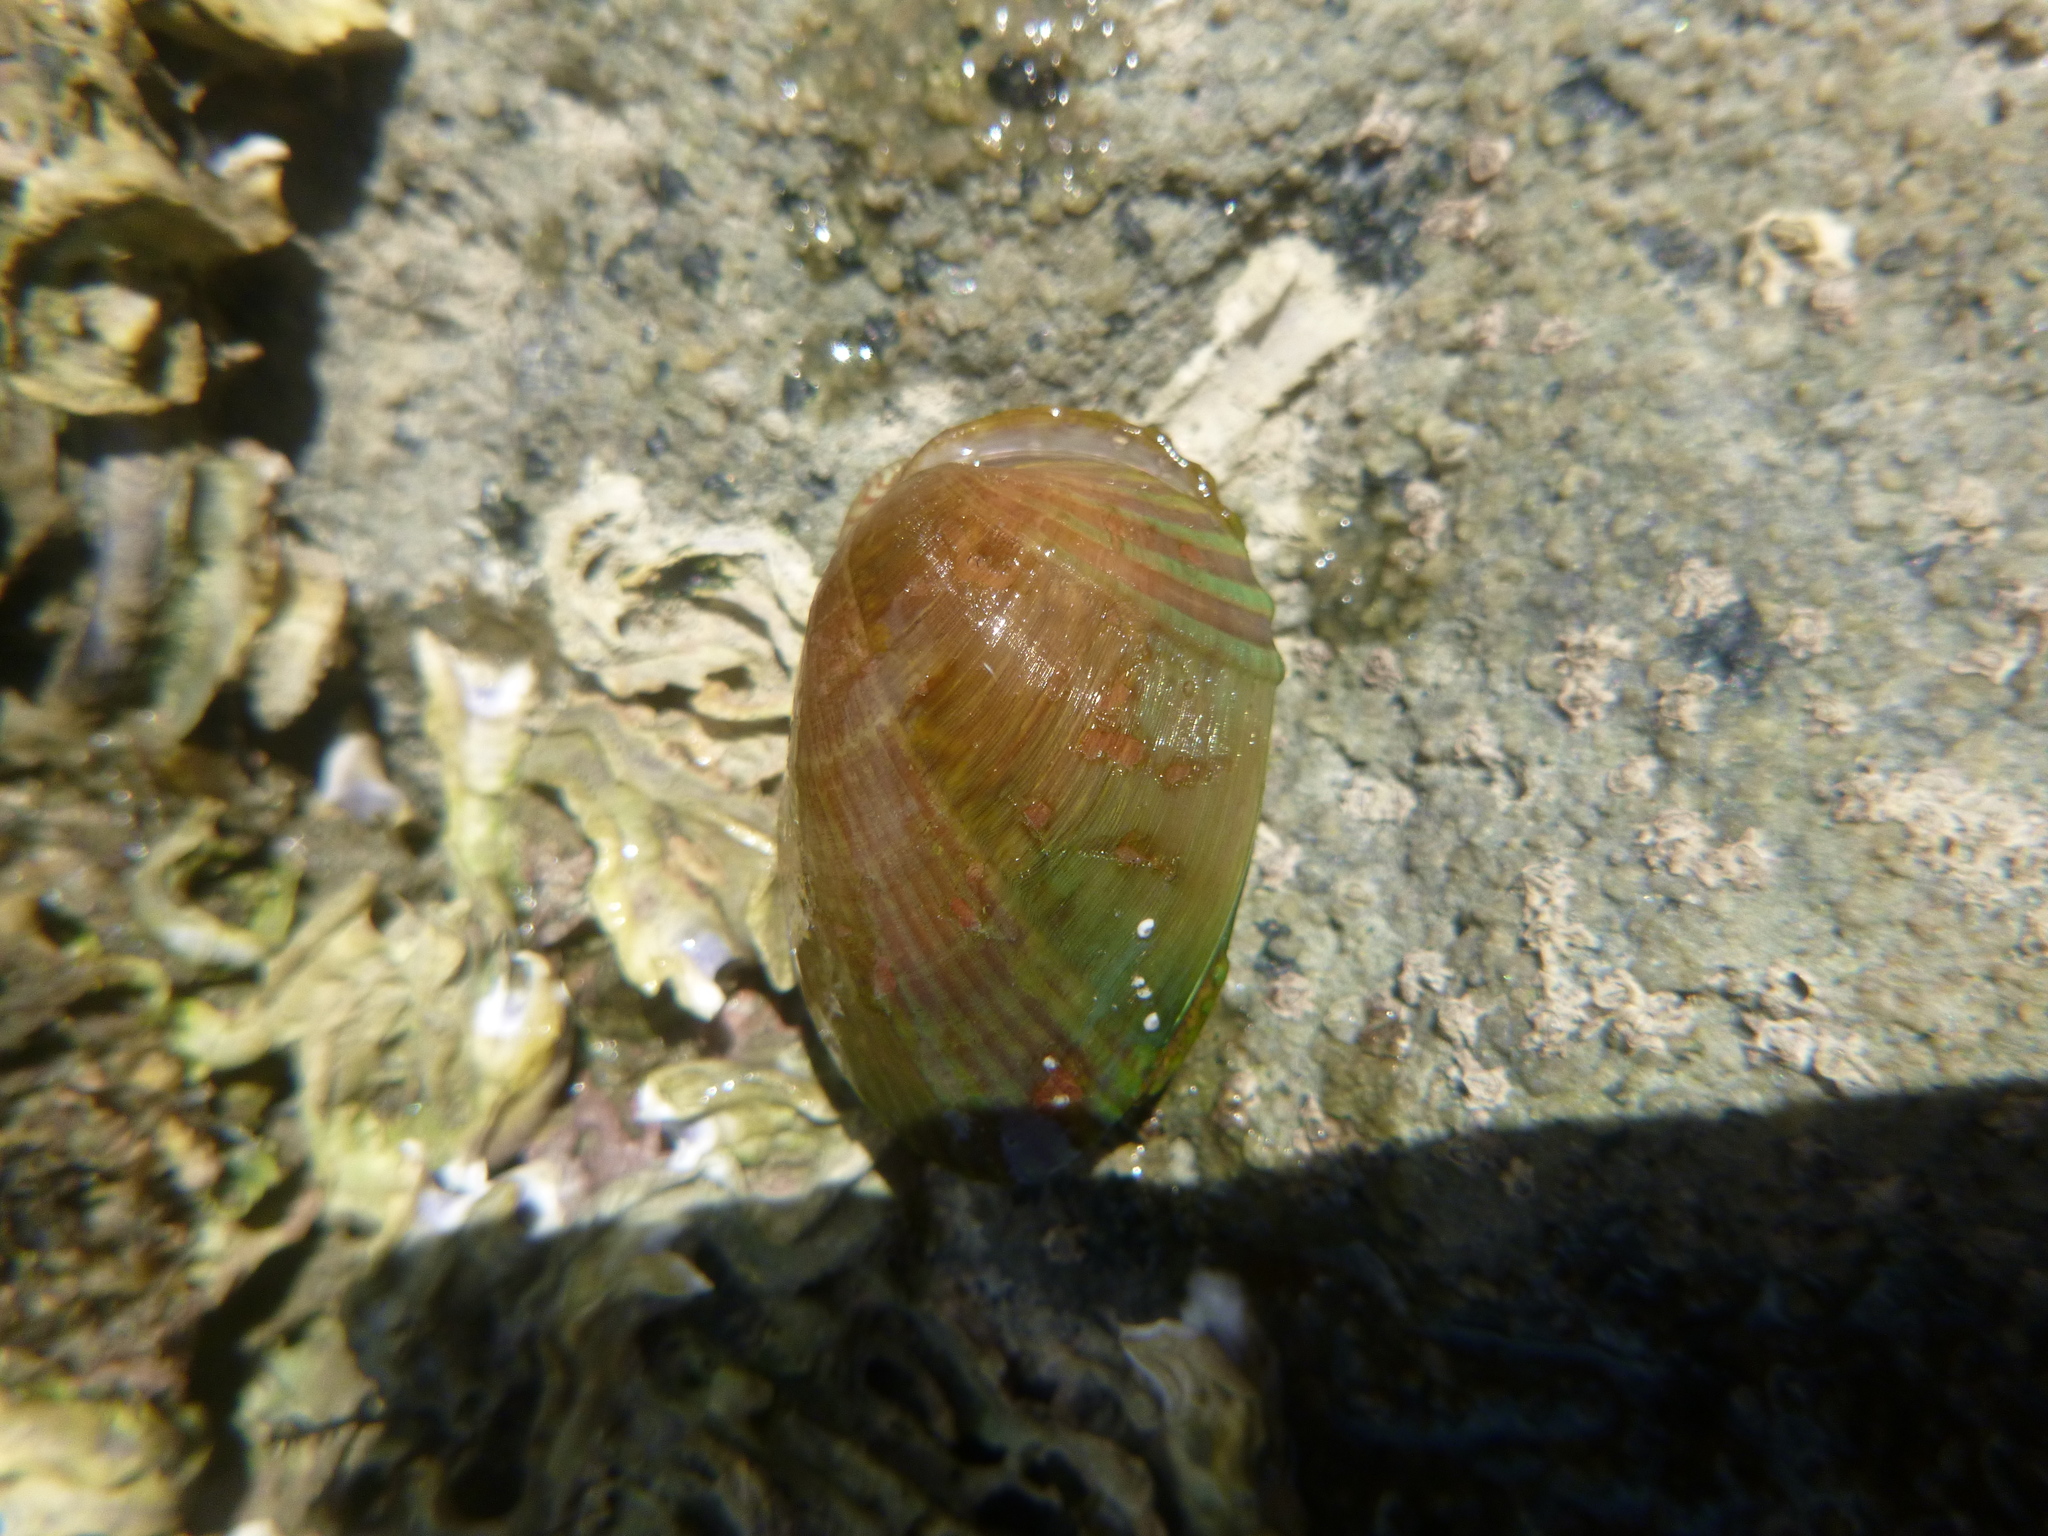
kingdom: Animalia
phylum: Mollusca
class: Bivalvia
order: Mytilida
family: Mytilidae
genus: Musculus
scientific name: Musculus impactus
